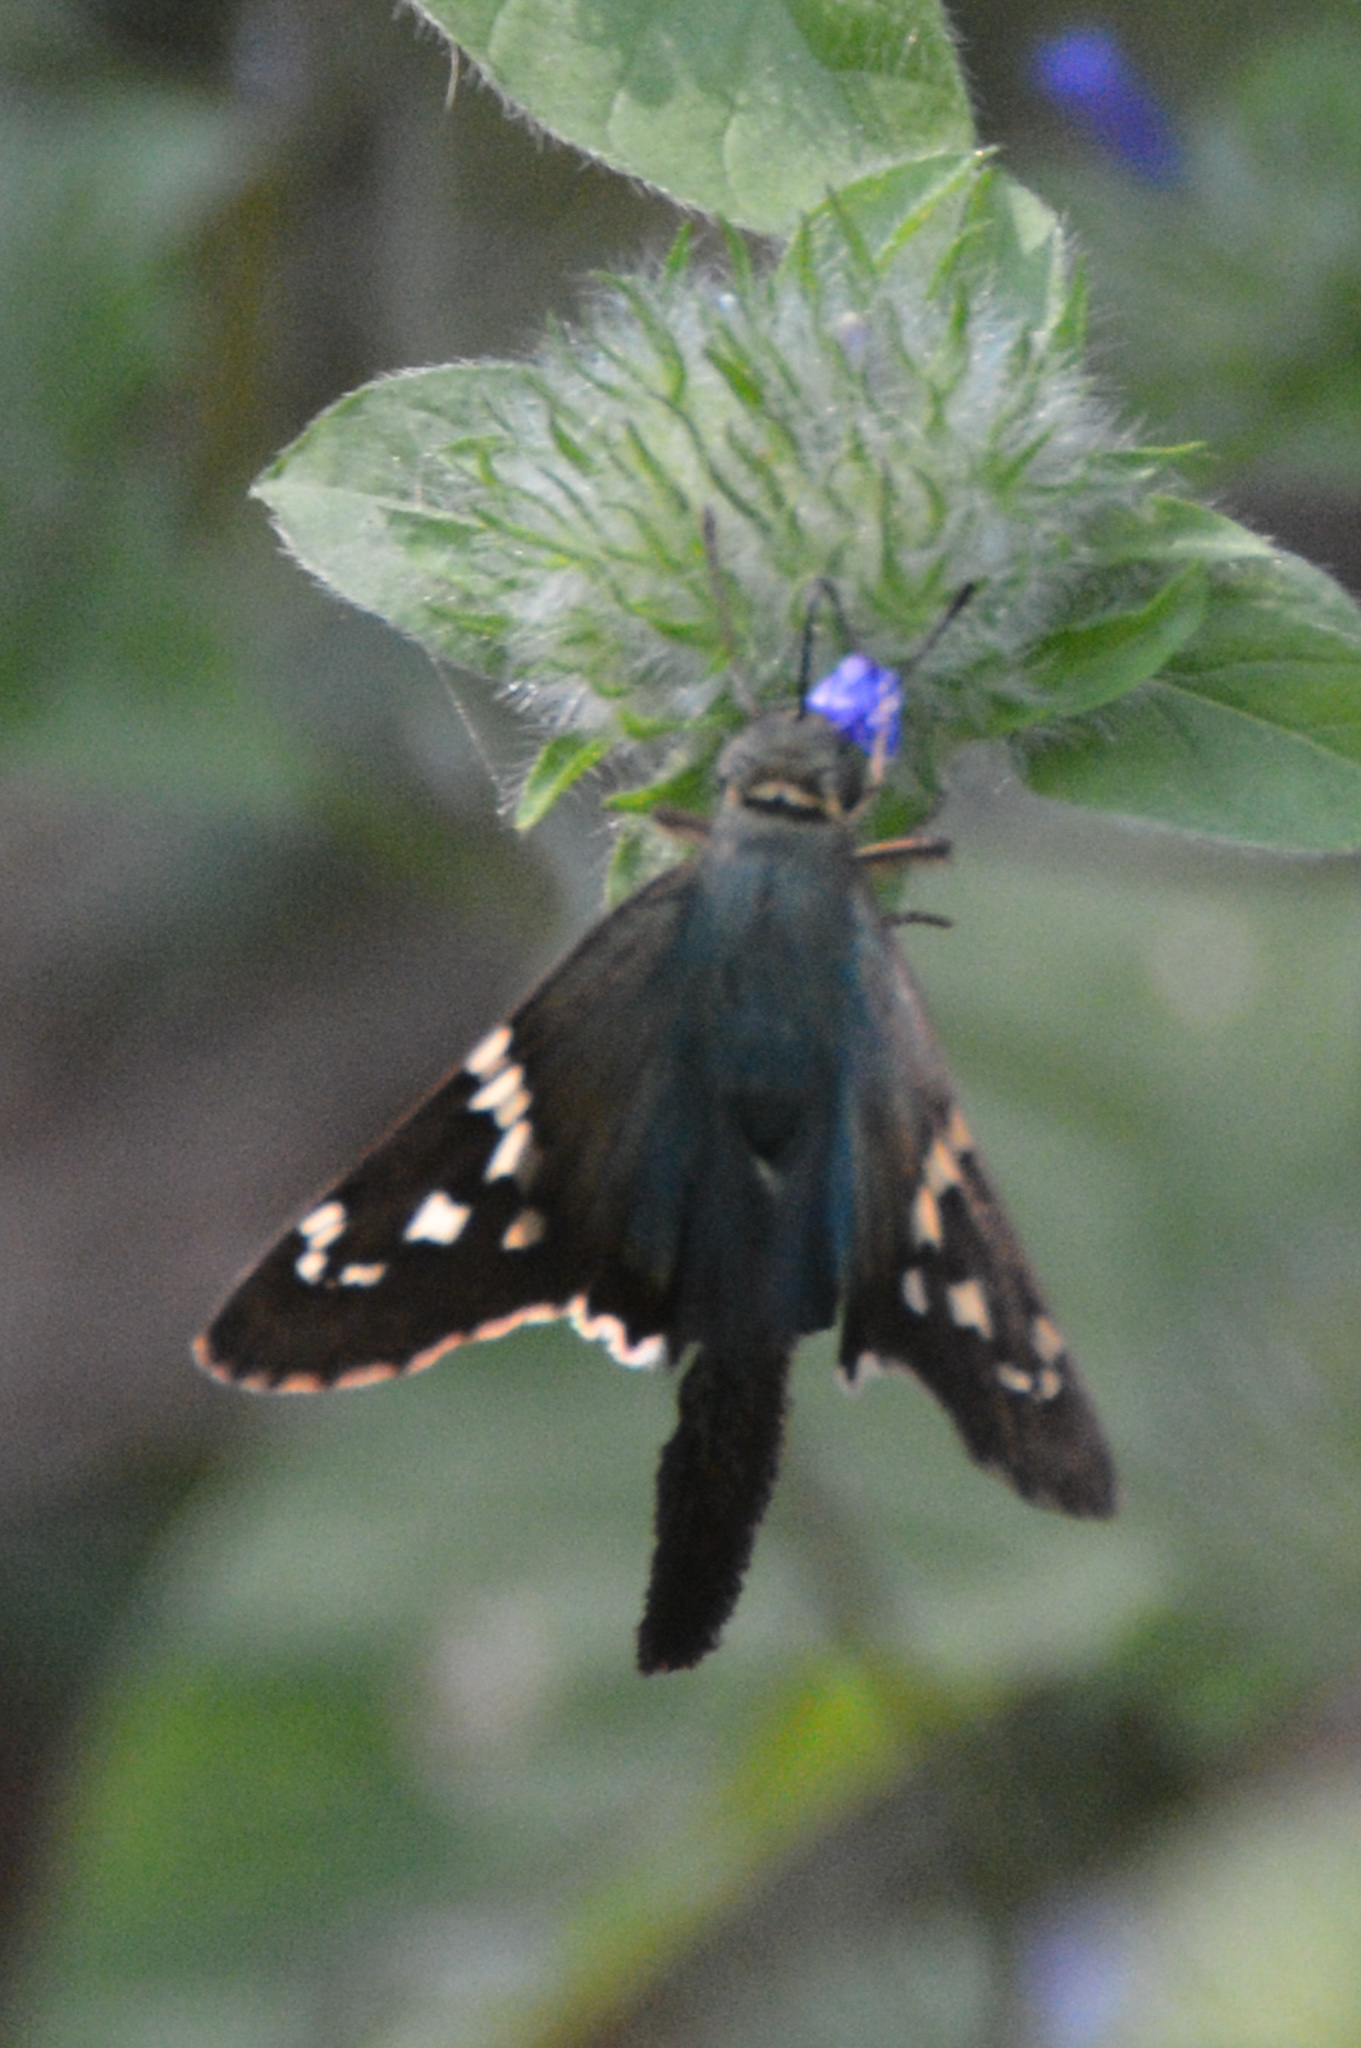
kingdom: Animalia
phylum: Arthropoda
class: Insecta
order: Lepidoptera
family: Hesperiidae
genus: Urbanus
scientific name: Urbanus proteus
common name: Long-tailed skipper
